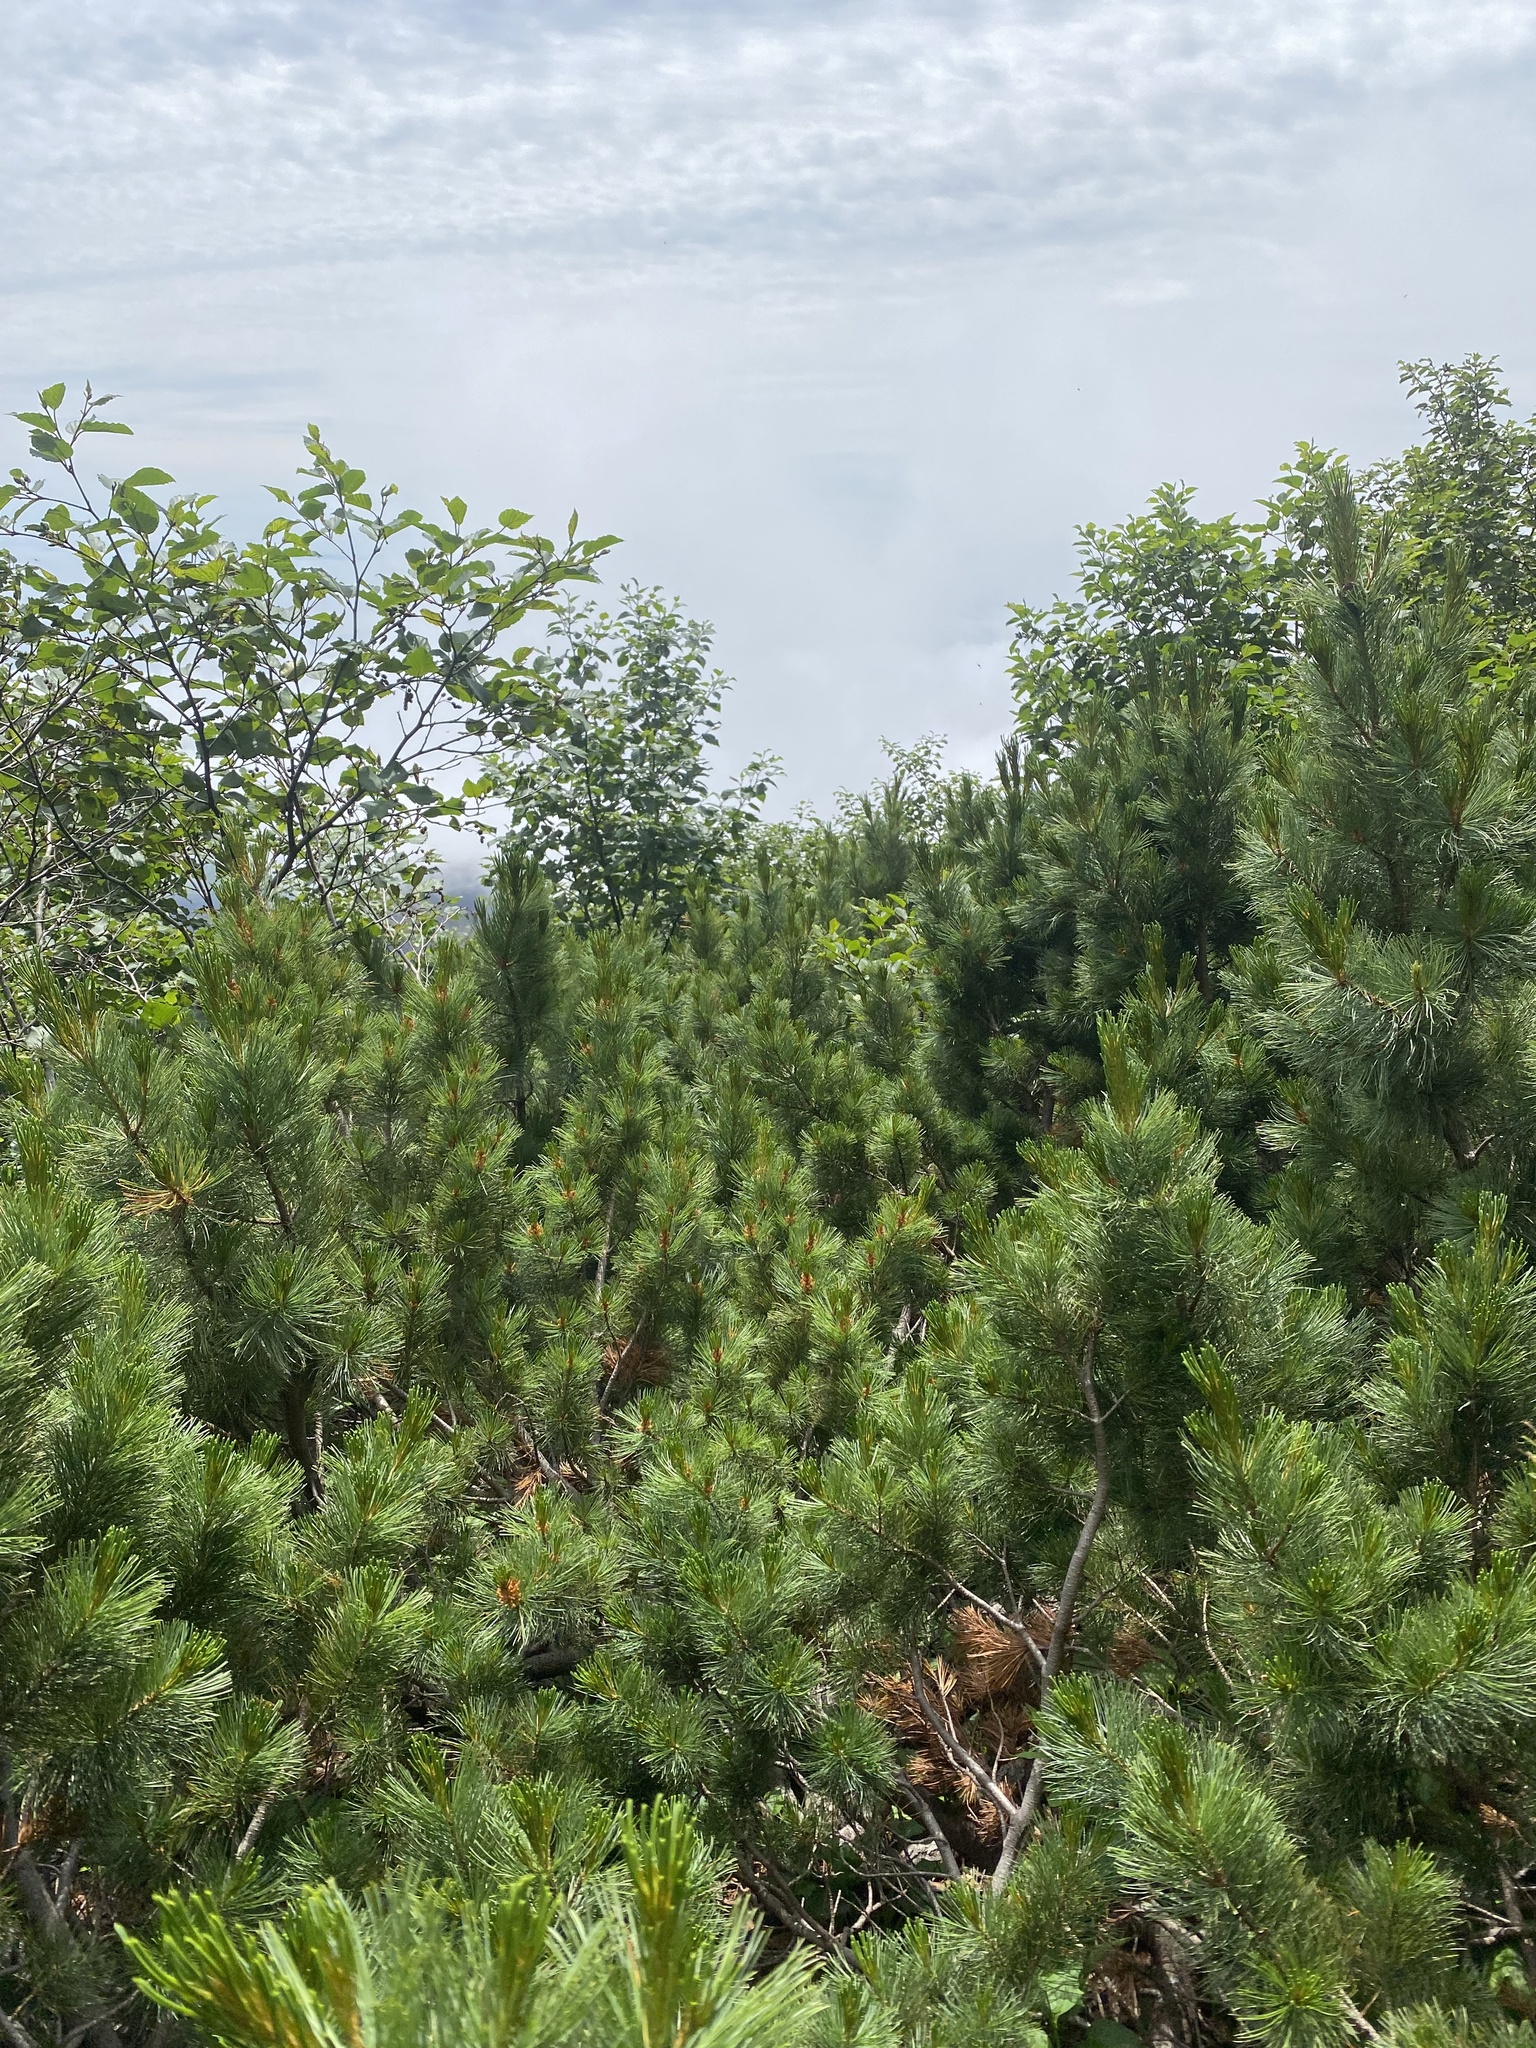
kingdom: Plantae
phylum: Tracheophyta
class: Pinopsida
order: Pinales
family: Pinaceae
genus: Pinus
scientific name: Pinus pumila
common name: Dwarf siberian pine
